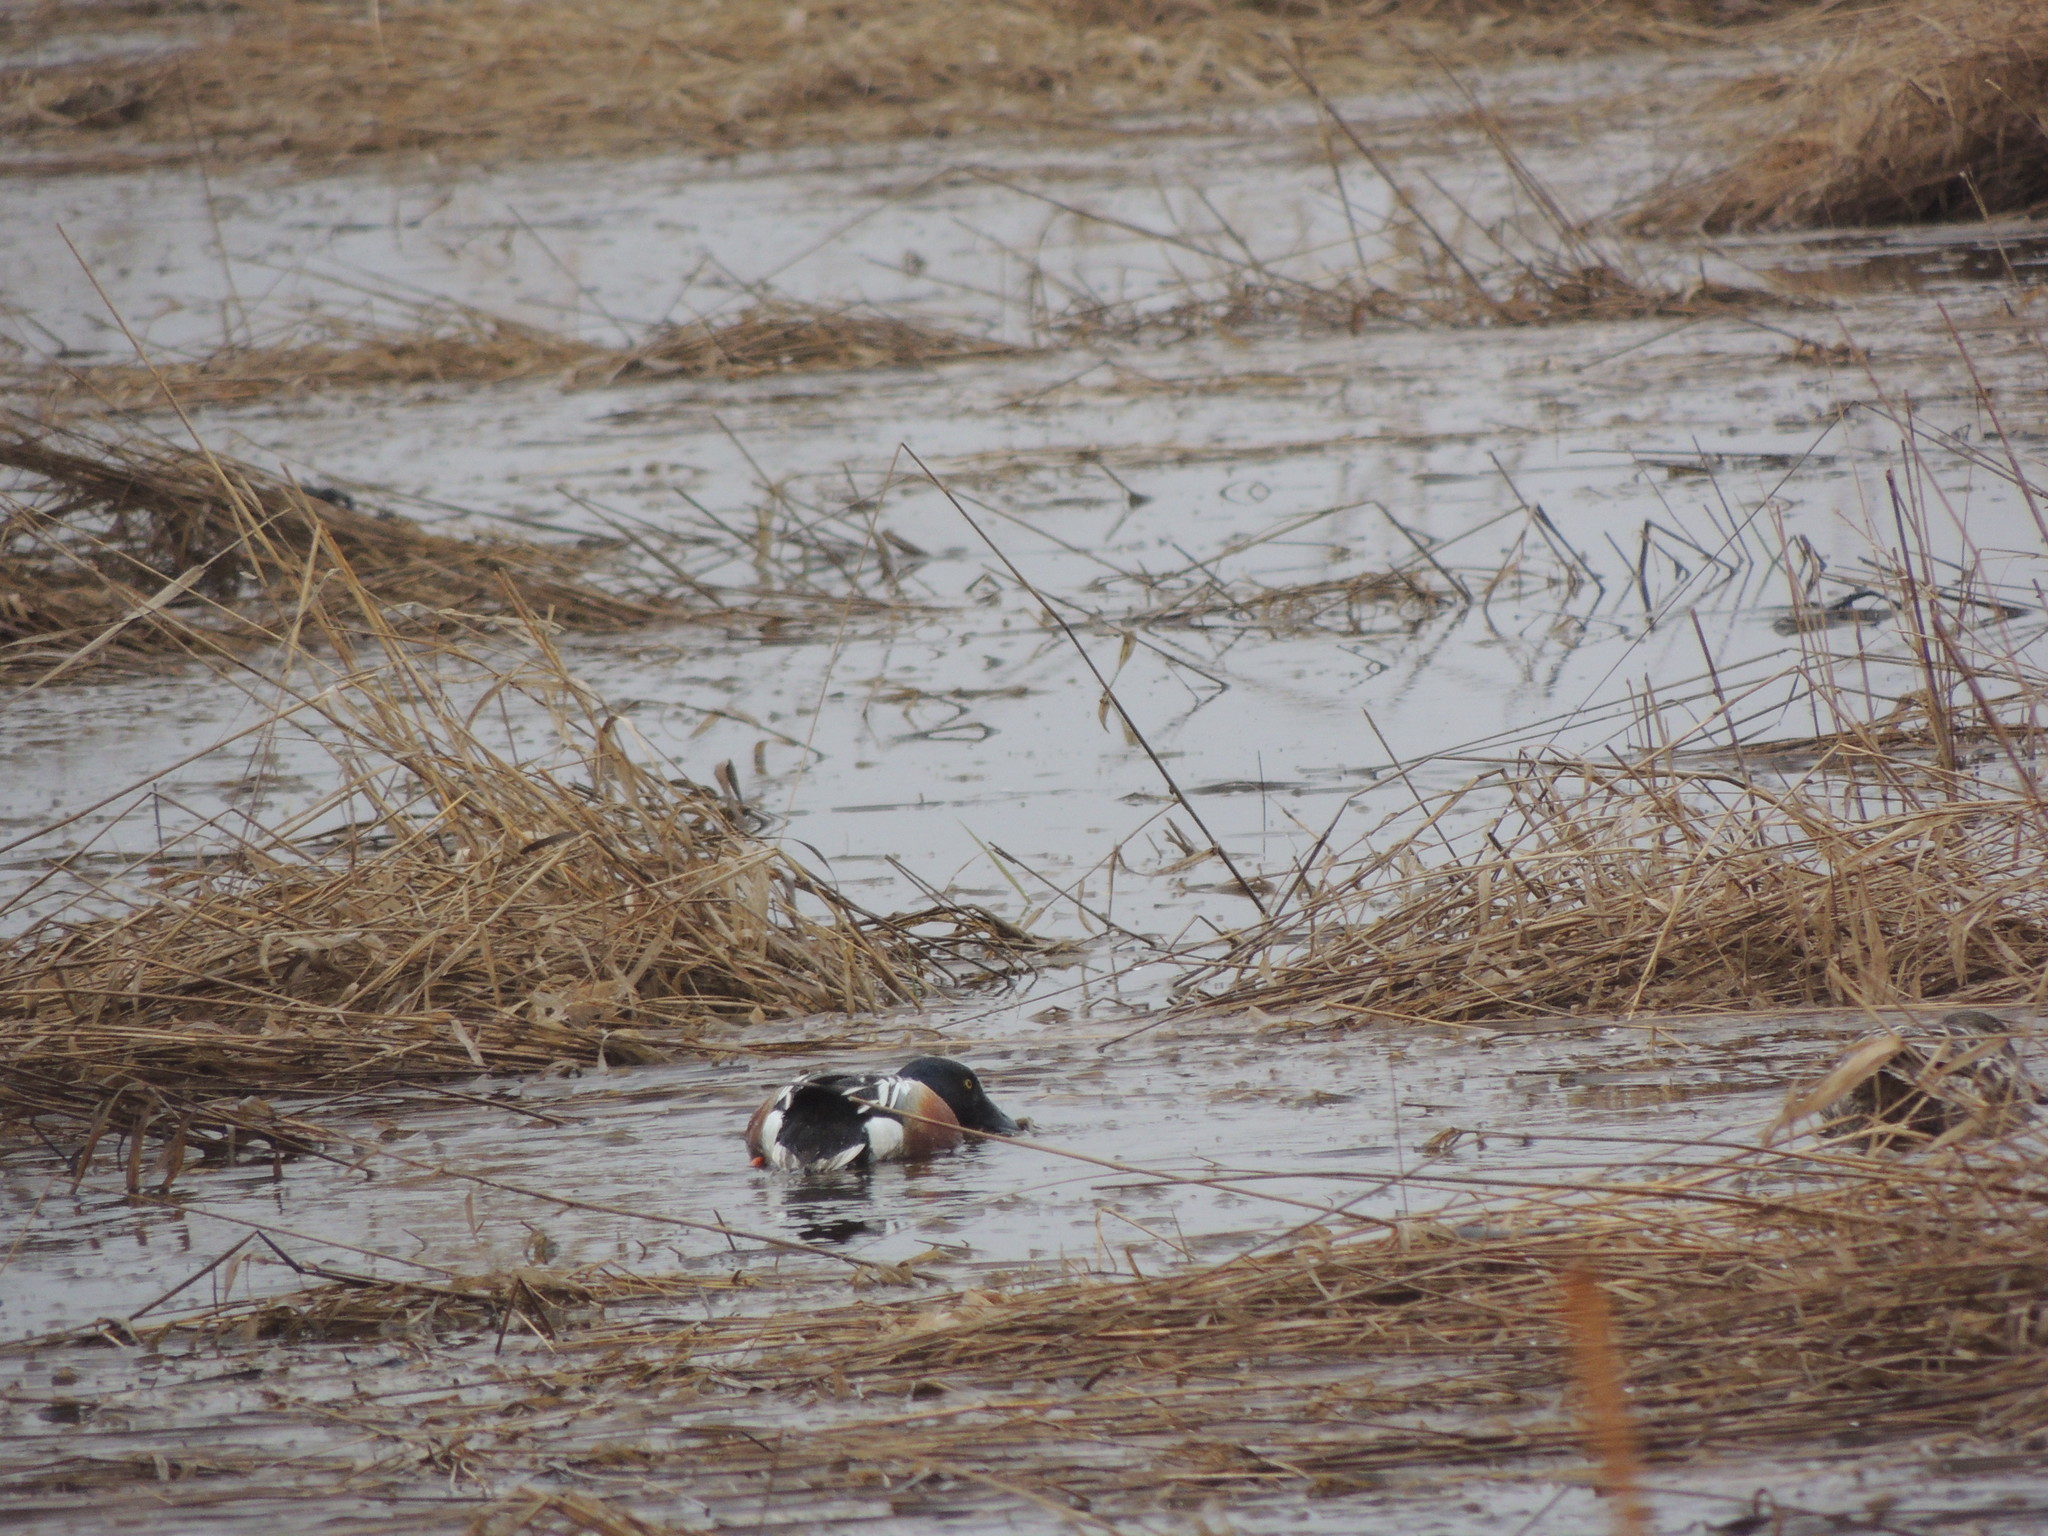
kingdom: Animalia
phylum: Chordata
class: Aves
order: Anseriformes
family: Anatidae
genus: Spatula
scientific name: Spatula clypeata
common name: Northern shoveler
